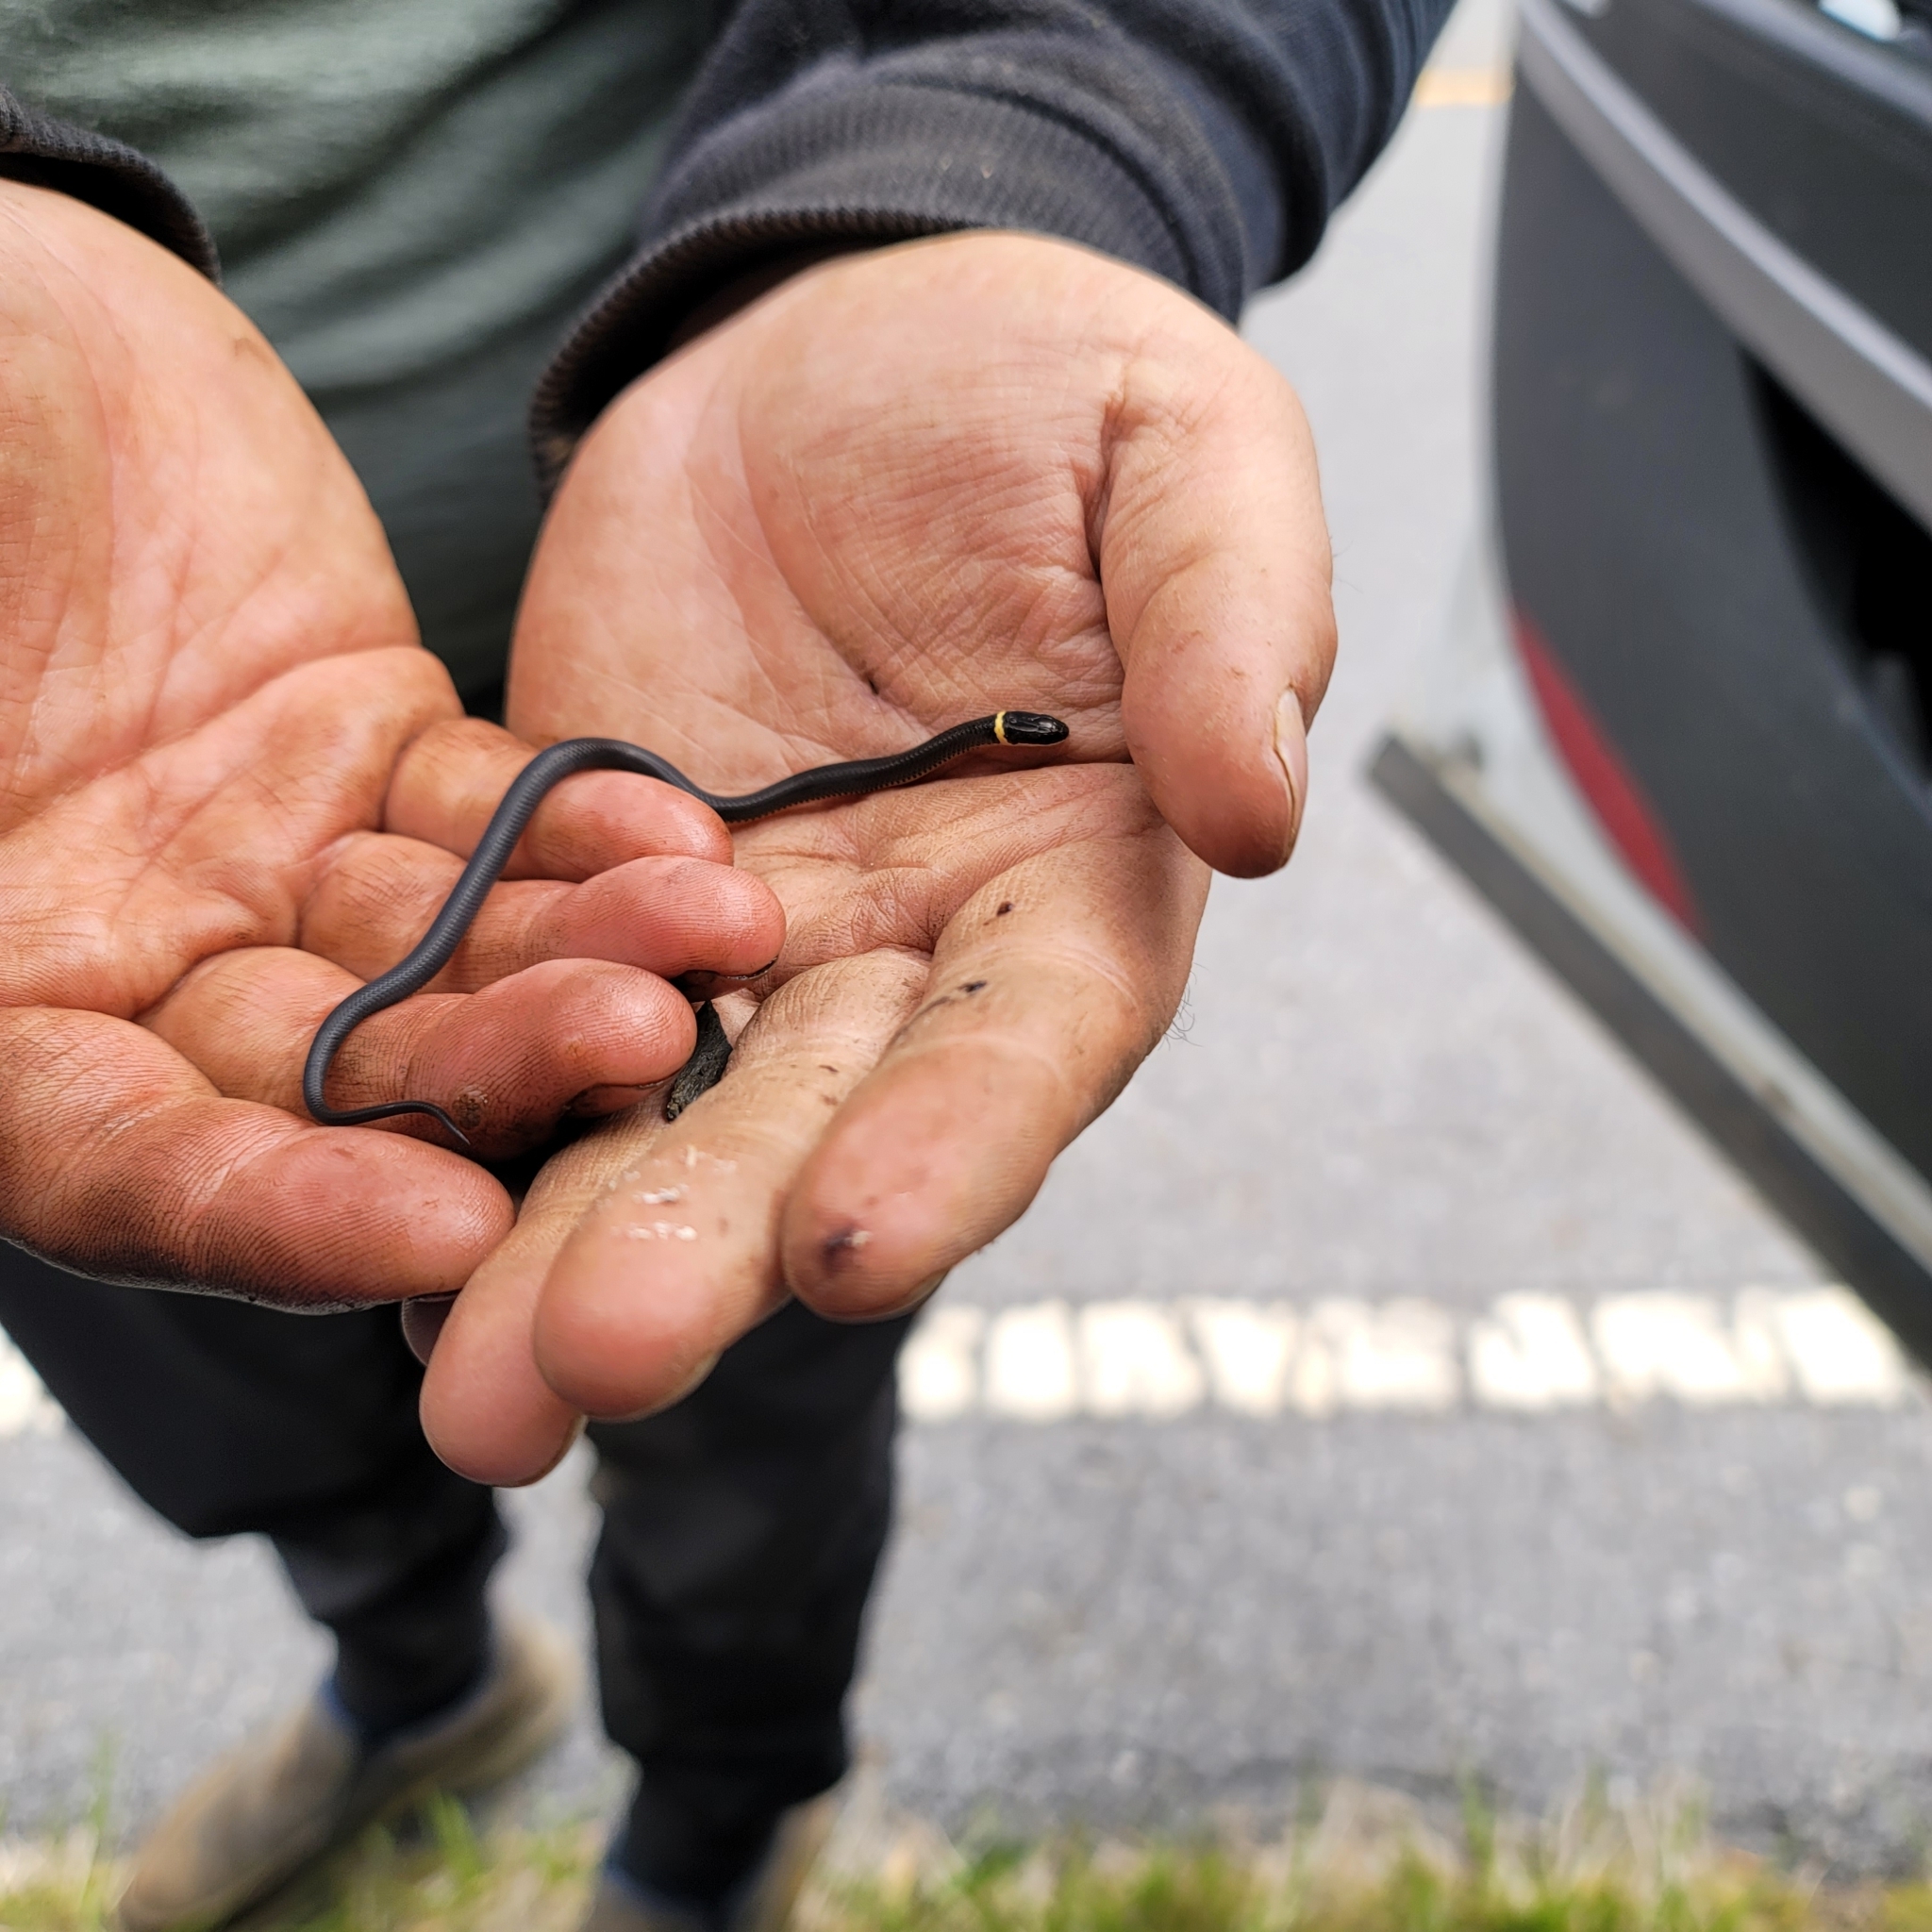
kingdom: Animalia
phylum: Chordata
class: Squamata
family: Colubridae
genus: Diadophis
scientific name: Diadophis punctatus
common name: Ringneck snake
